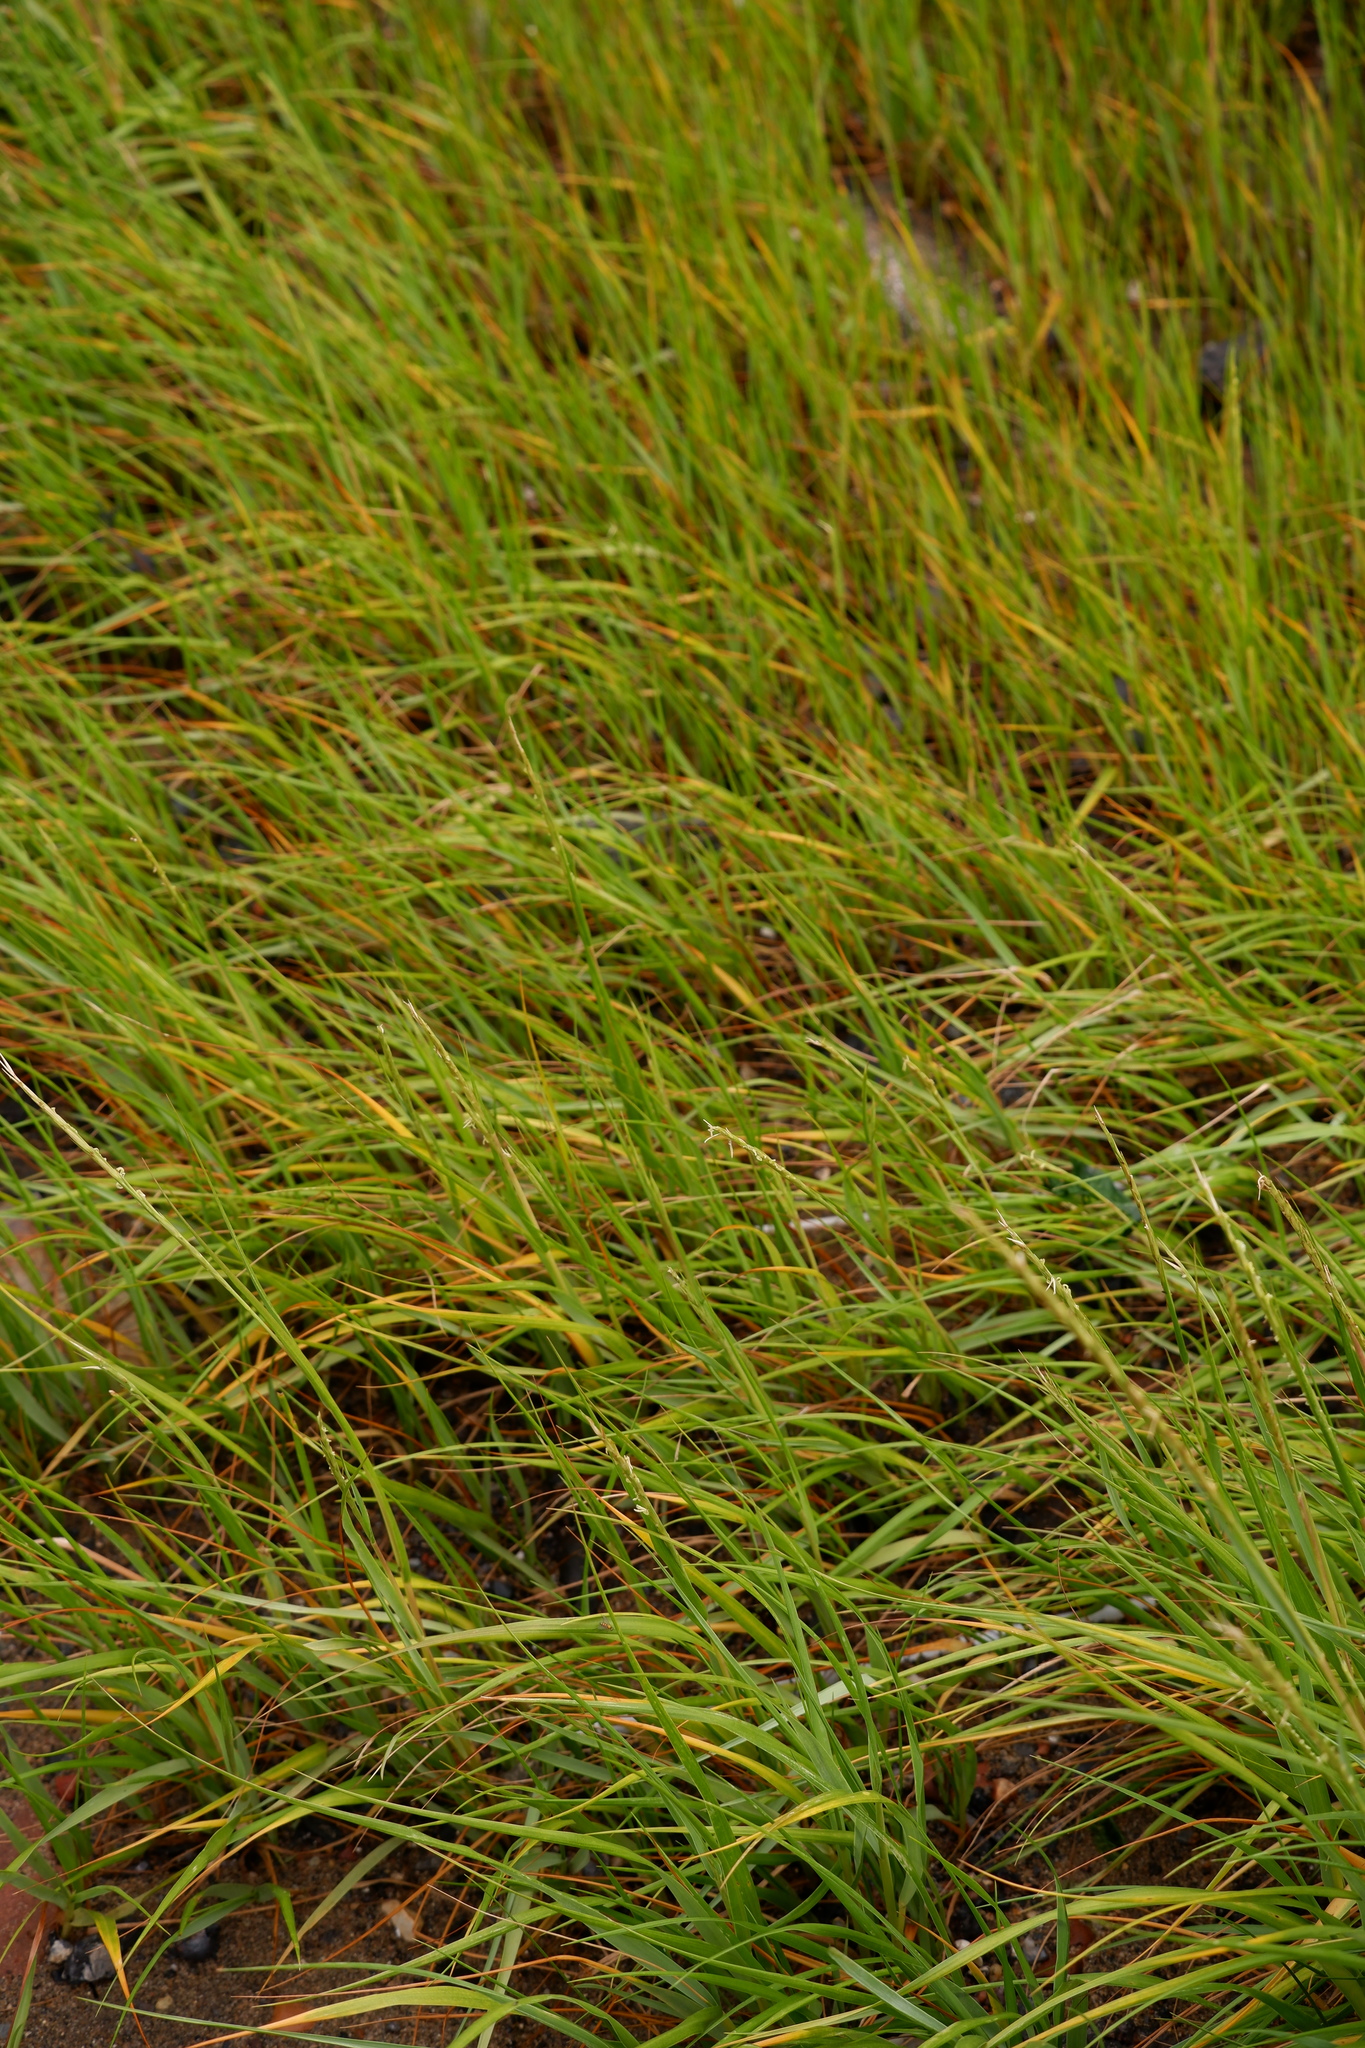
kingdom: Plantae
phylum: Tracheophyta
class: Liliopsida
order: Poales
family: Poaceae
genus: Sporobolus
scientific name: Sporobolus alterniflorus
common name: Atlantic cordgrass
